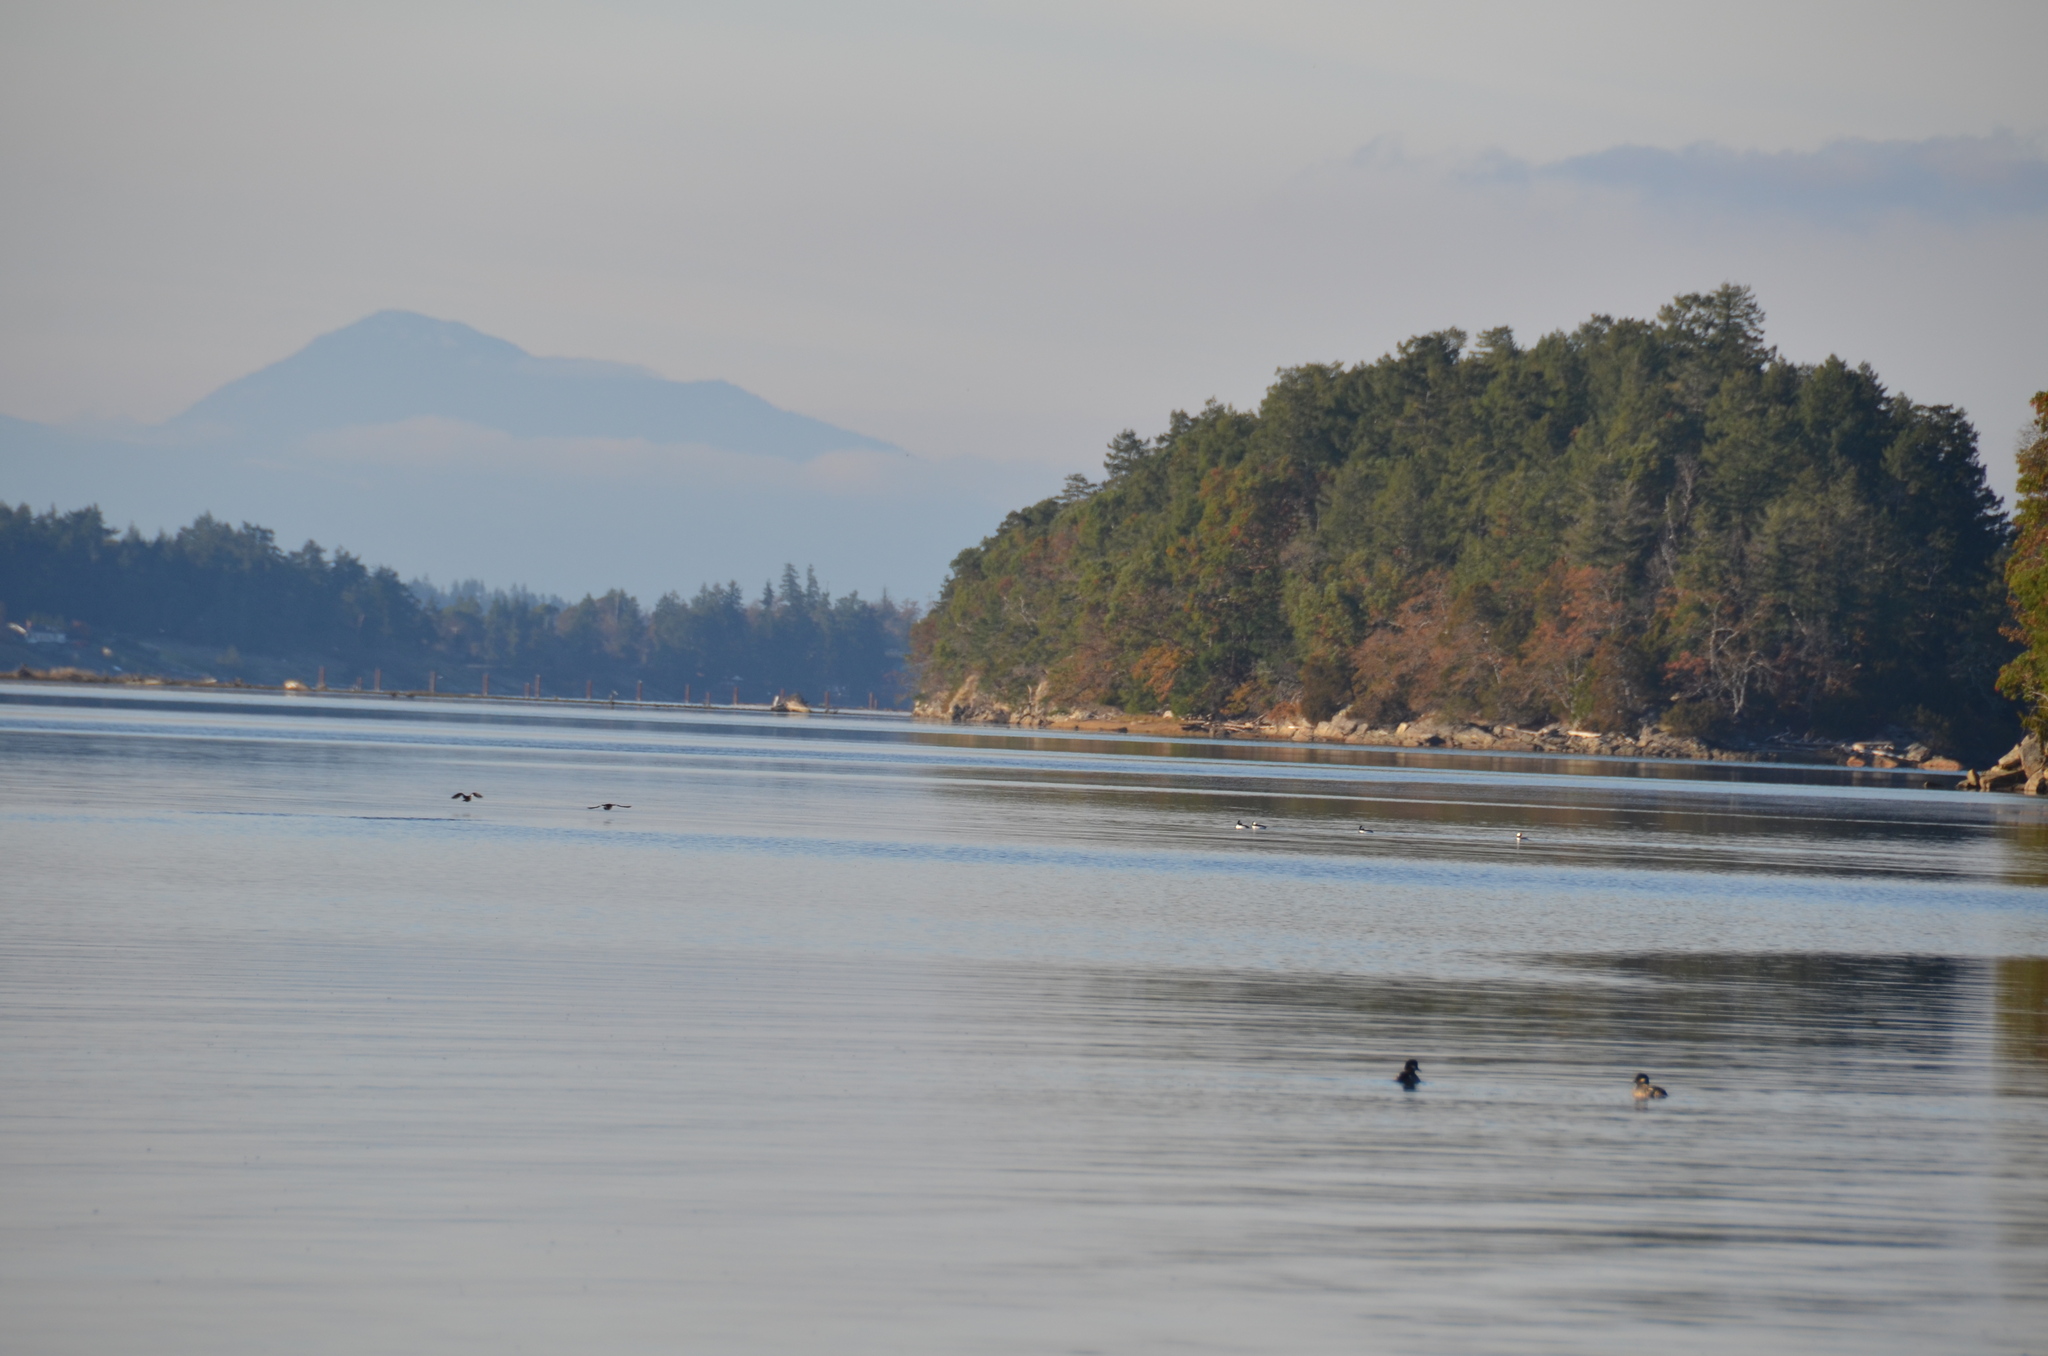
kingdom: Animalia
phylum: Chordata
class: Aves
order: Anseriformes
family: Anatidae
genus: Bucephala
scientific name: Bucephala albeola
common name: Bufflehead
